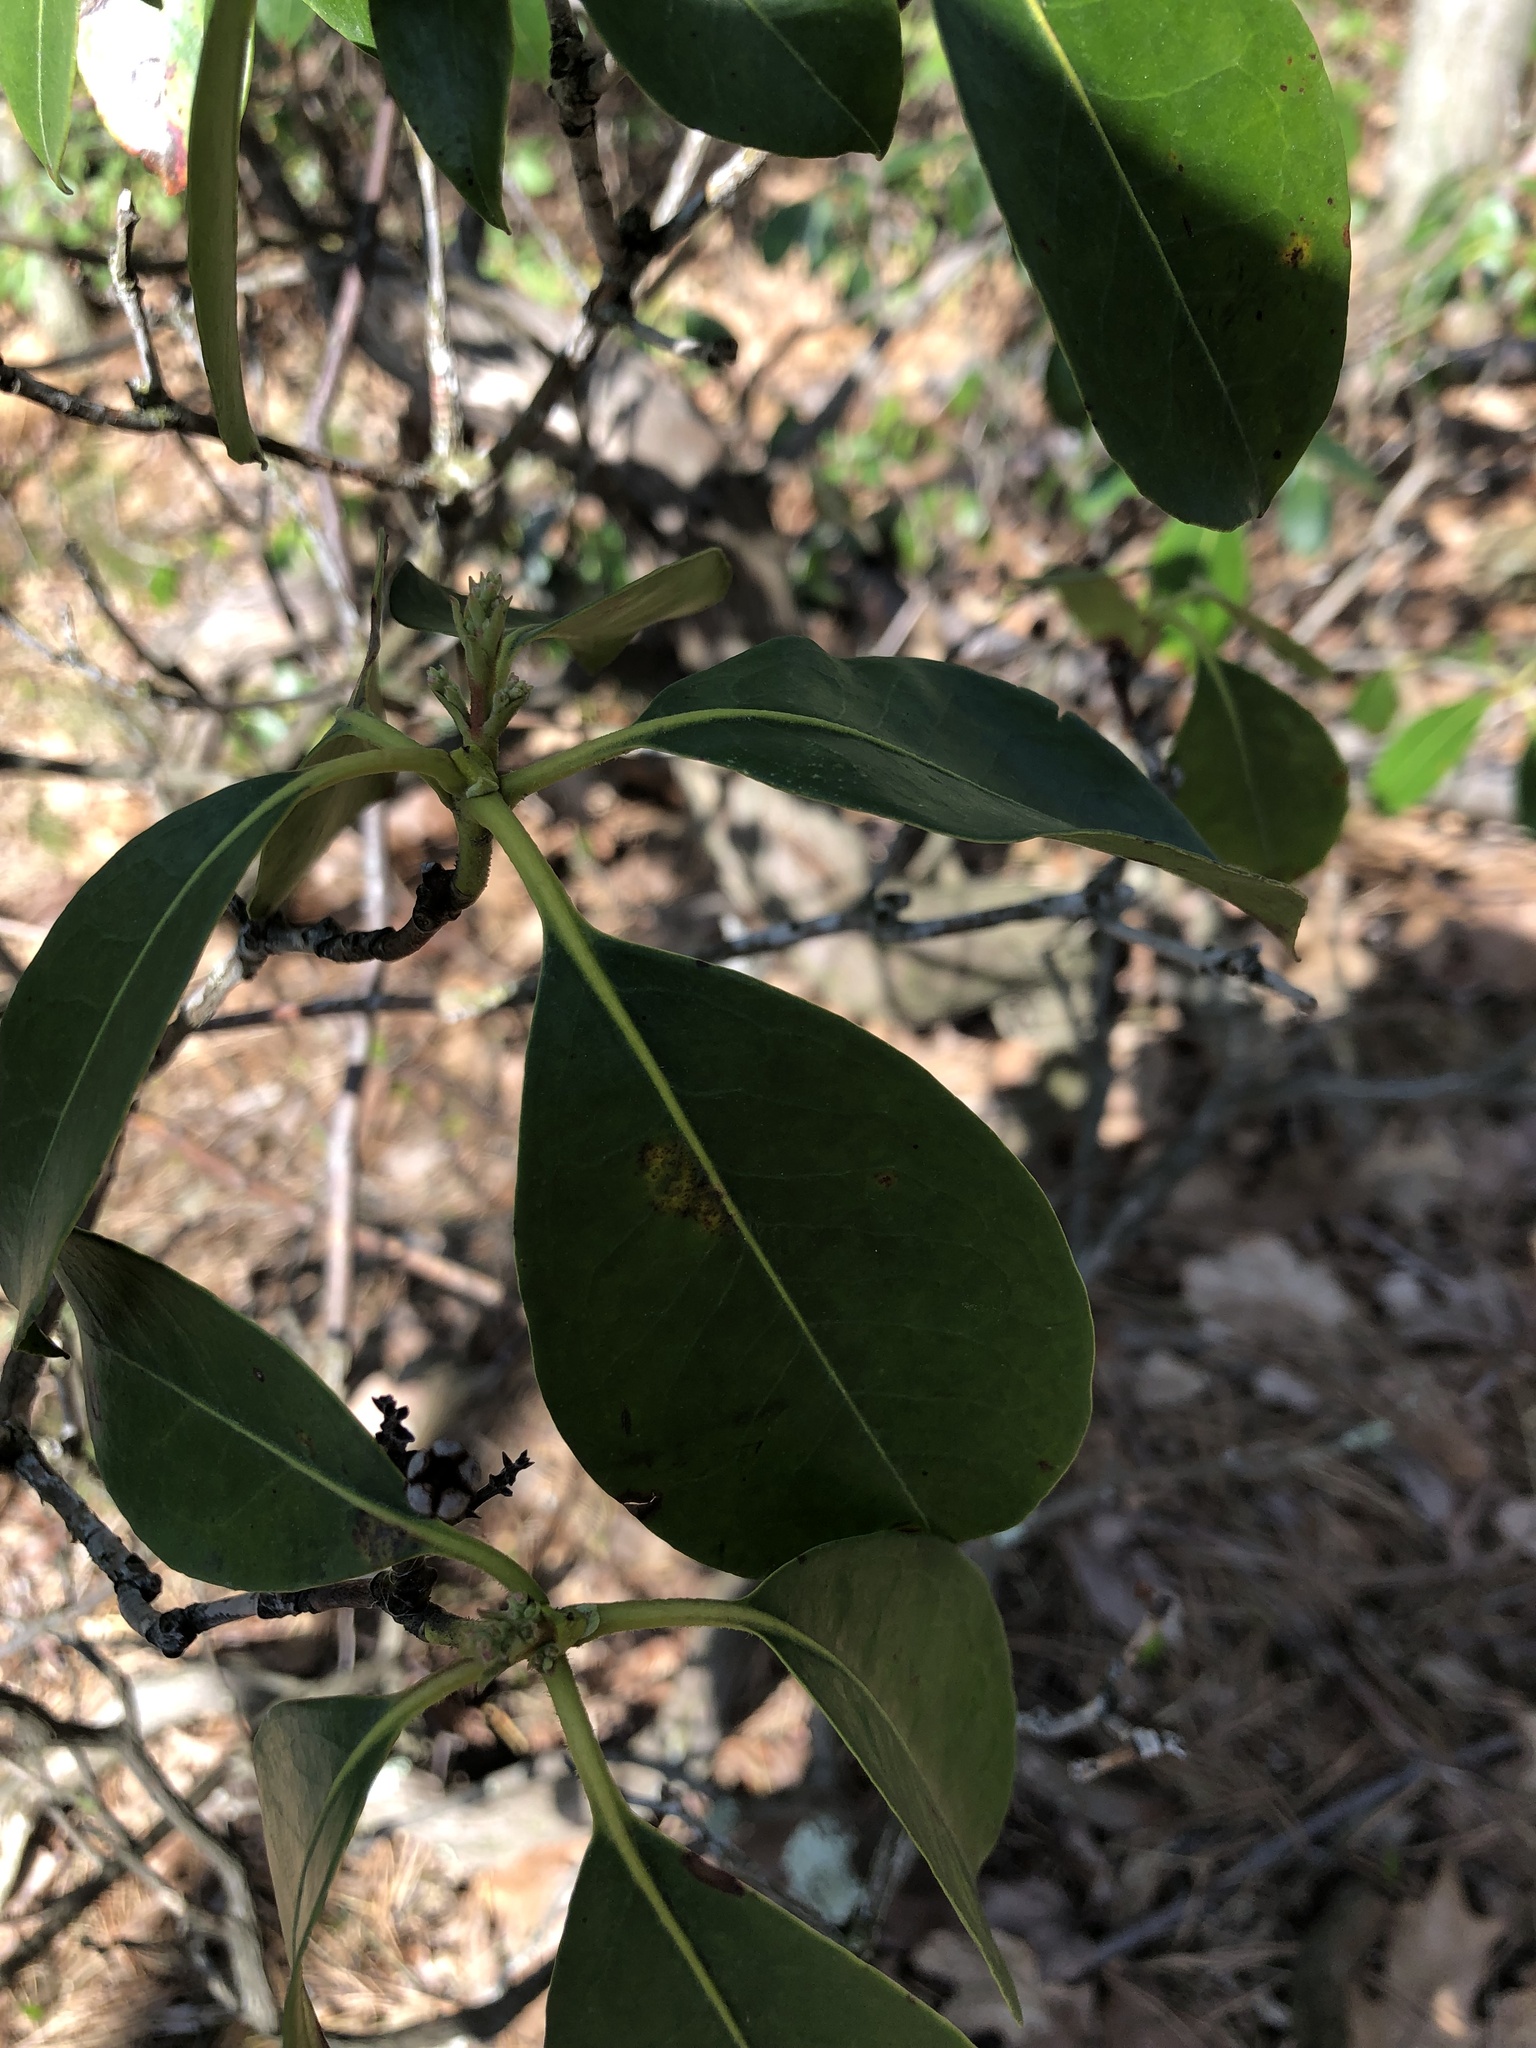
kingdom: Plantae
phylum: Tracheophyta
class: Magnoliopsida
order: Ericales
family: Ericaceae
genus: Kalmia
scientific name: Kalmia latifolia
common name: Mountain-laurel
